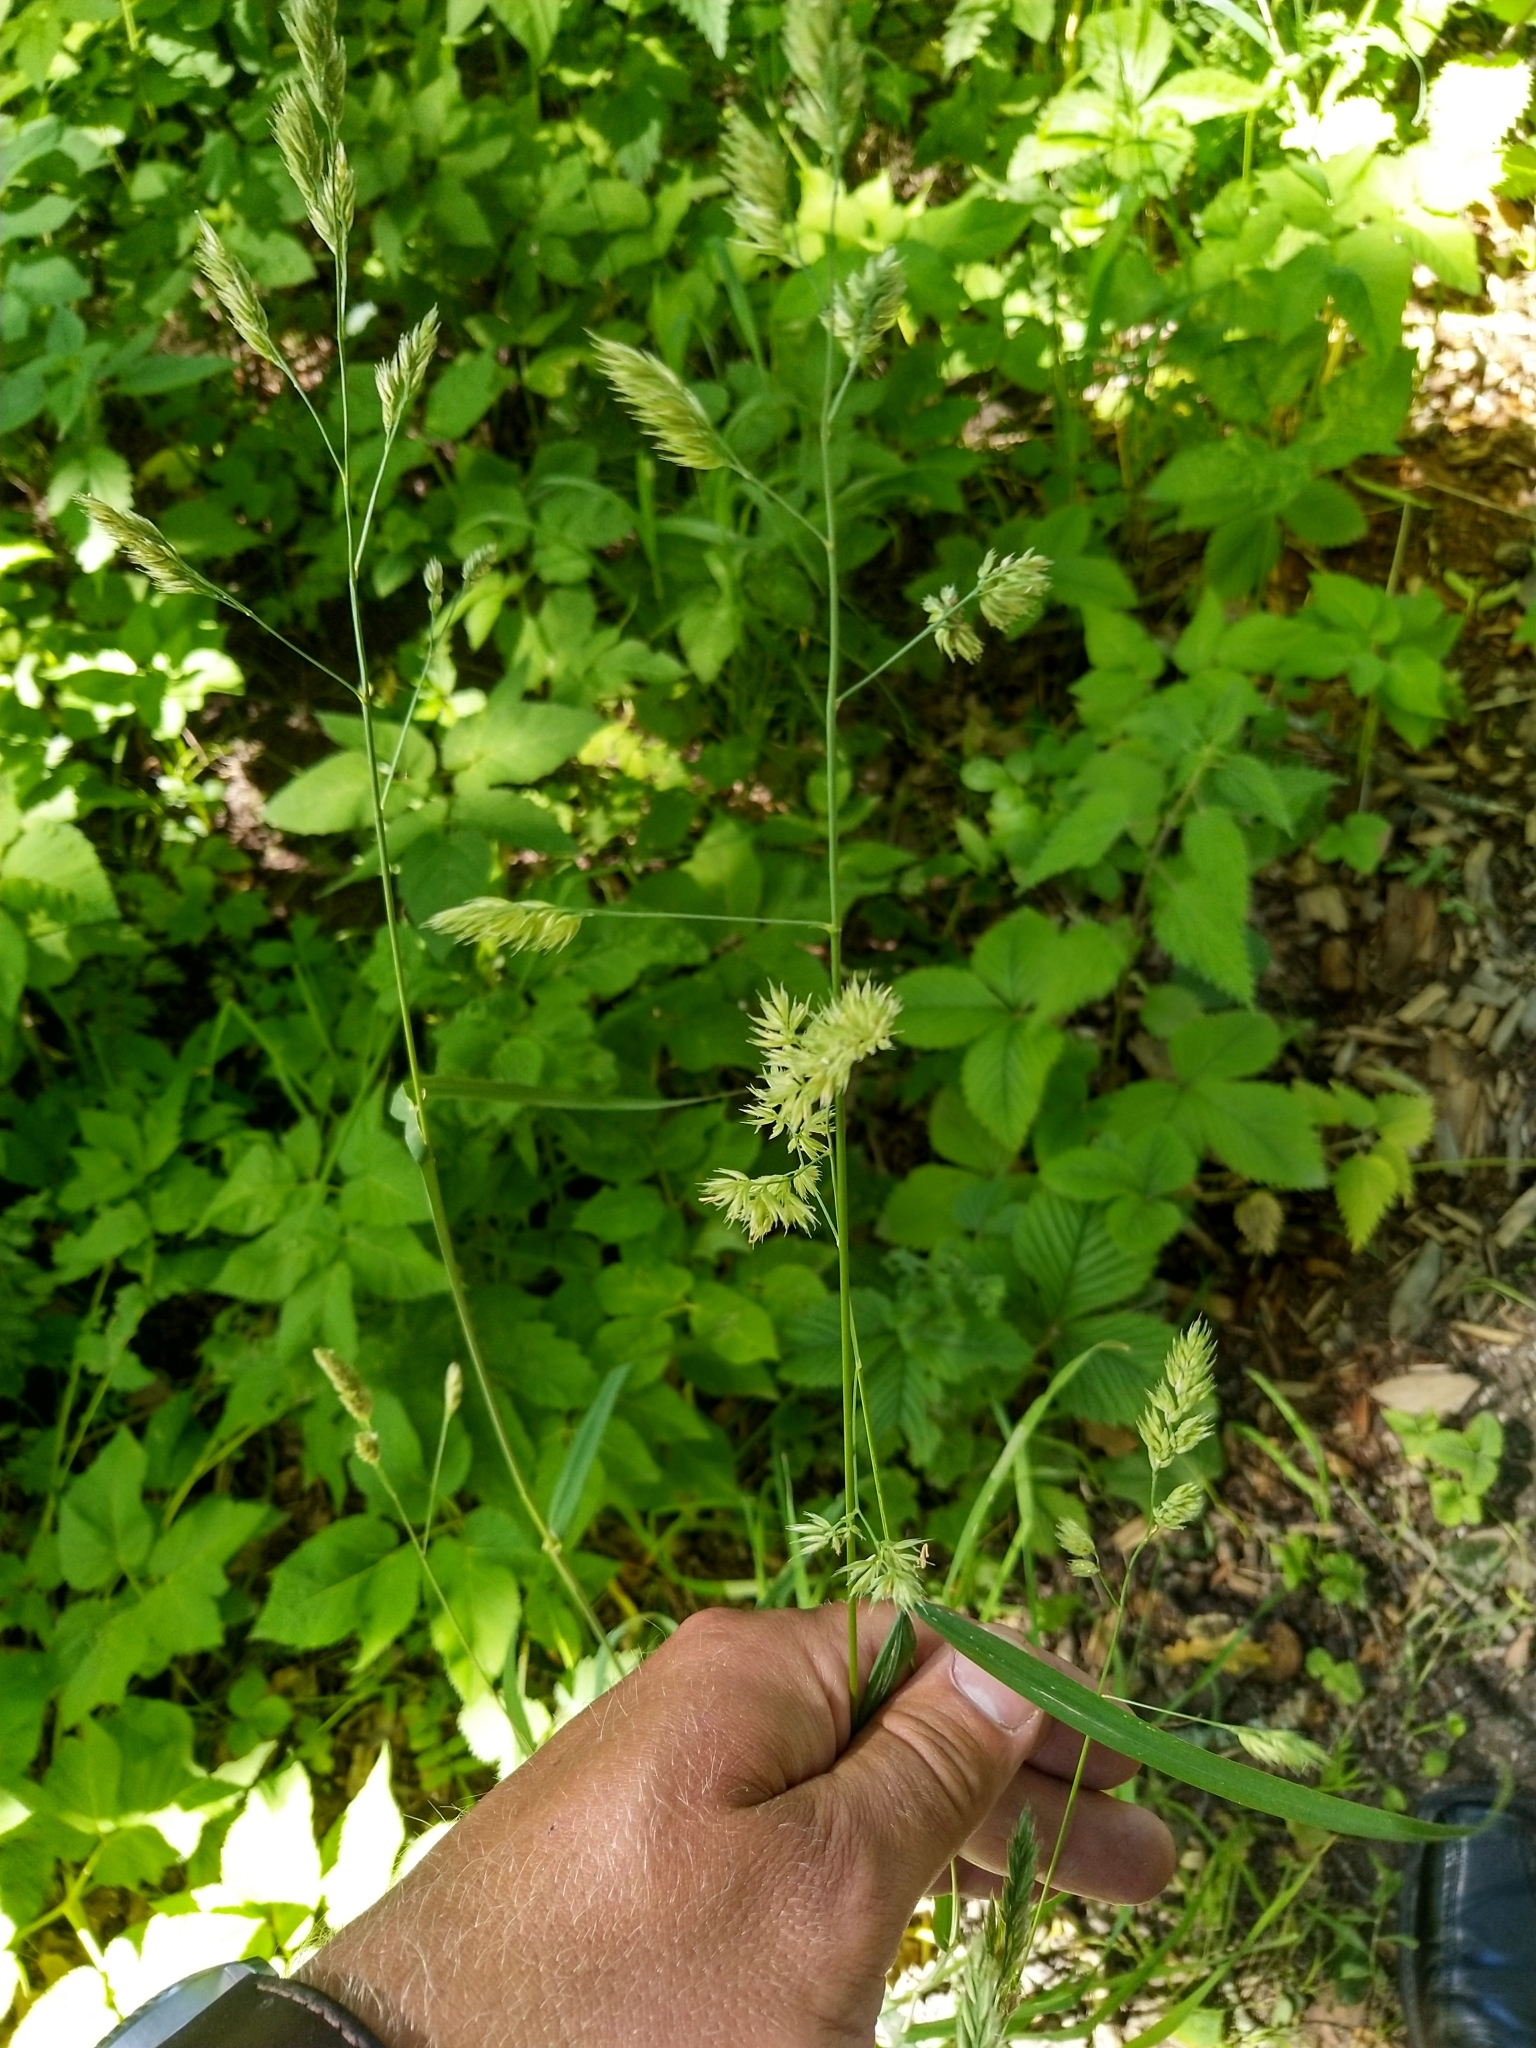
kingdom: Plantae
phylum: Tracheophyta
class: Liliopsida
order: Poales
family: Poaceae
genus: Dactylis
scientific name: Dactylis glomerata
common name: Orchardgrass
